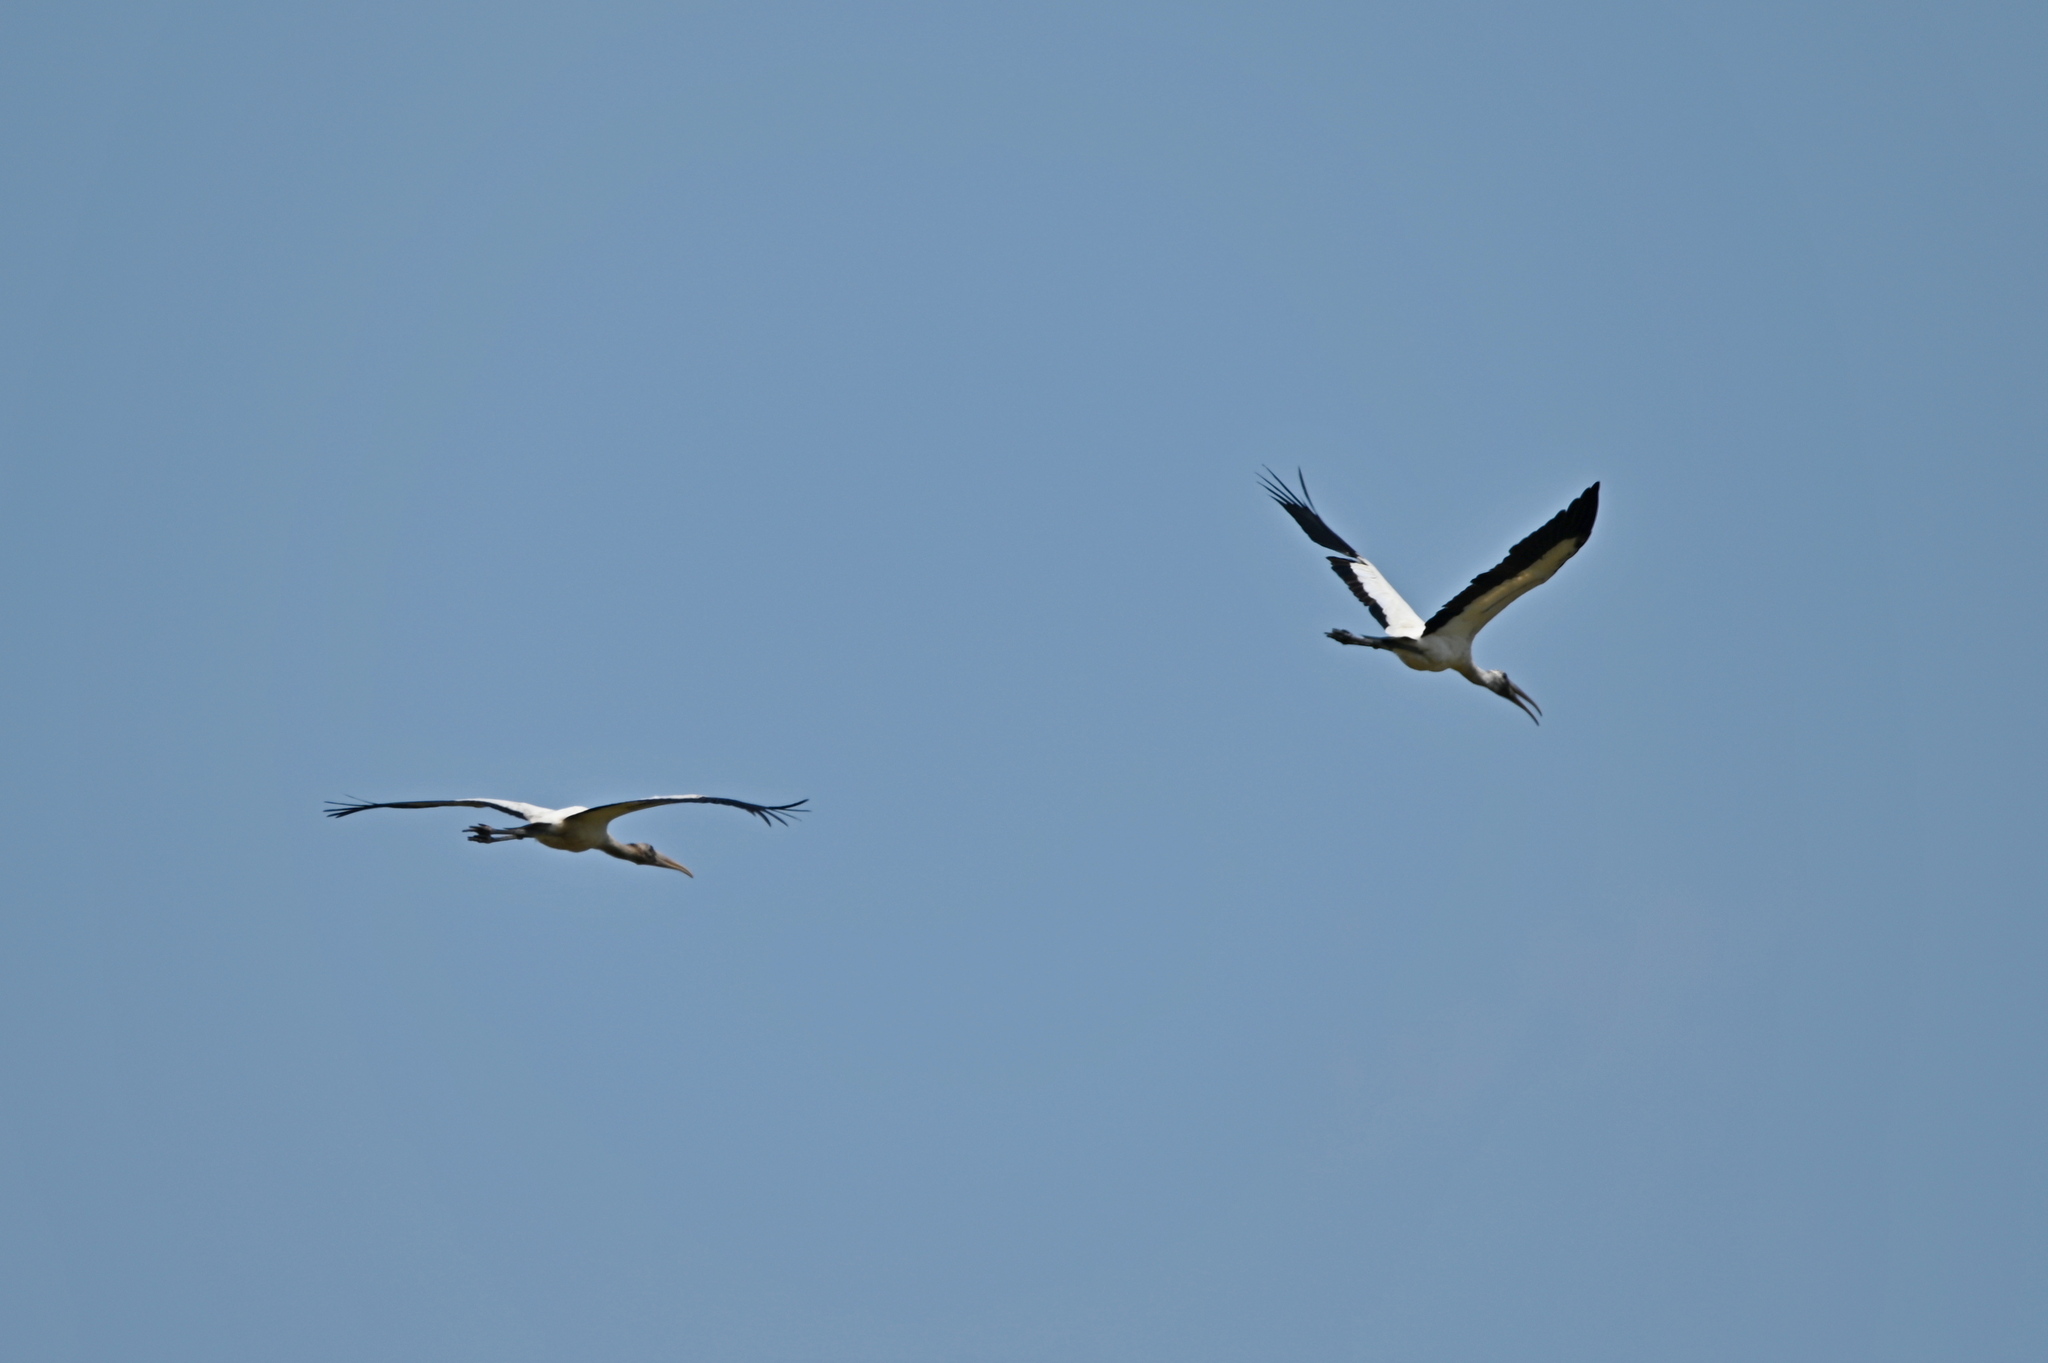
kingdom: Animalia
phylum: Chordata
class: Aves
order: Ciconiiformes
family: Ciconiidae
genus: Mycteria
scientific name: Mycteria americana
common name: Wood stork
